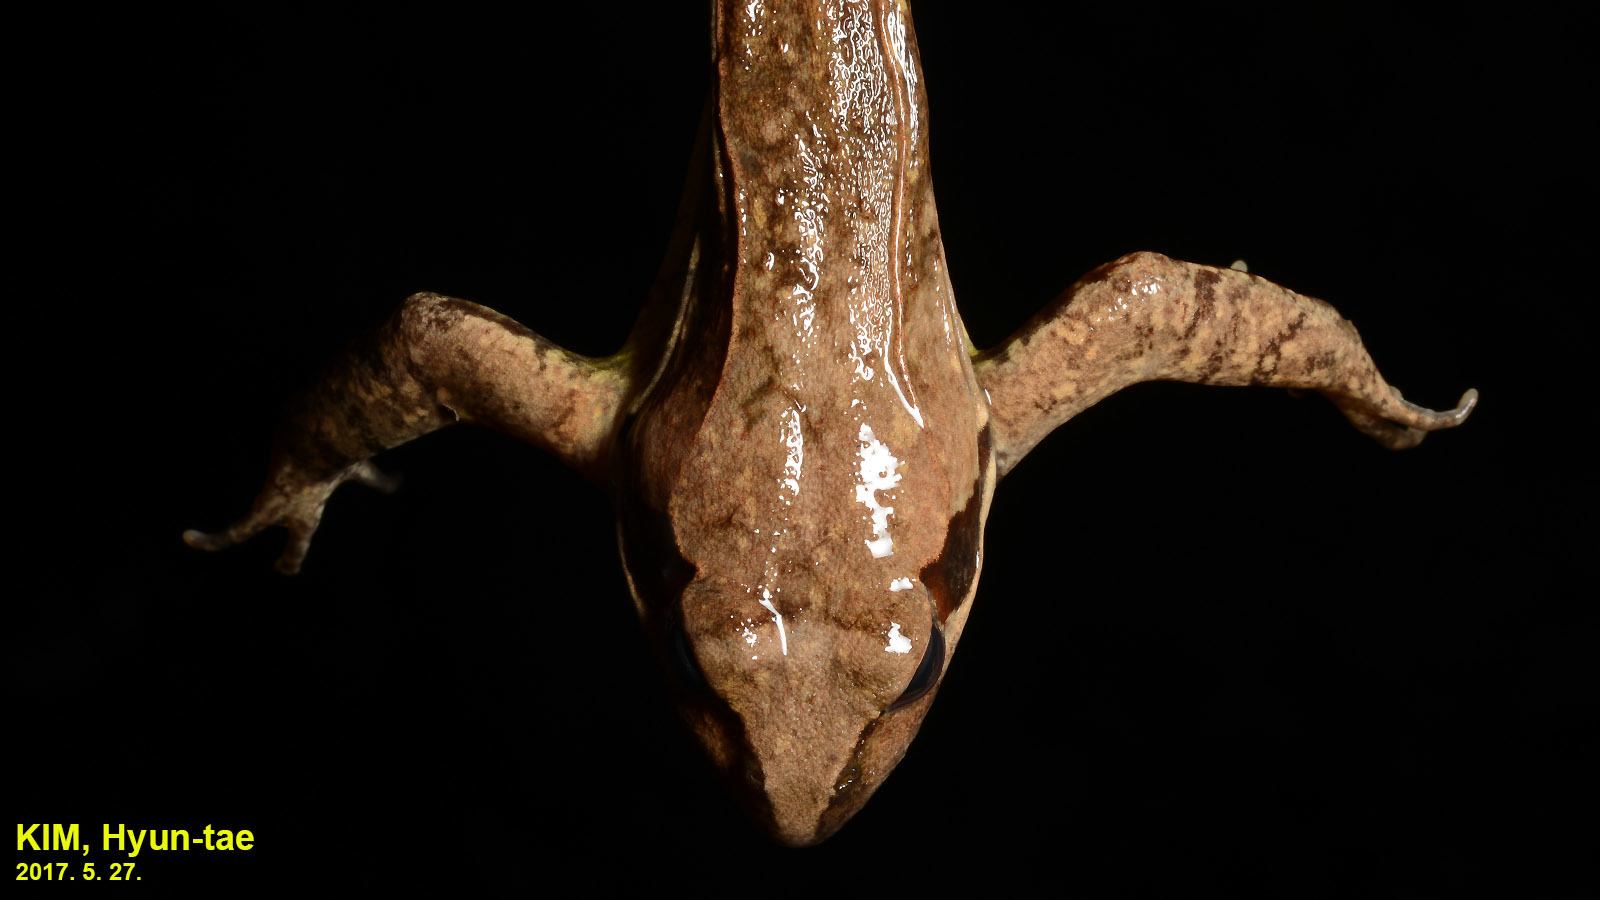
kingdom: Animalia
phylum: Chordata
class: Amphibia
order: Anura
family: Ranidae
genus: Rana
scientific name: Rana uenoi
